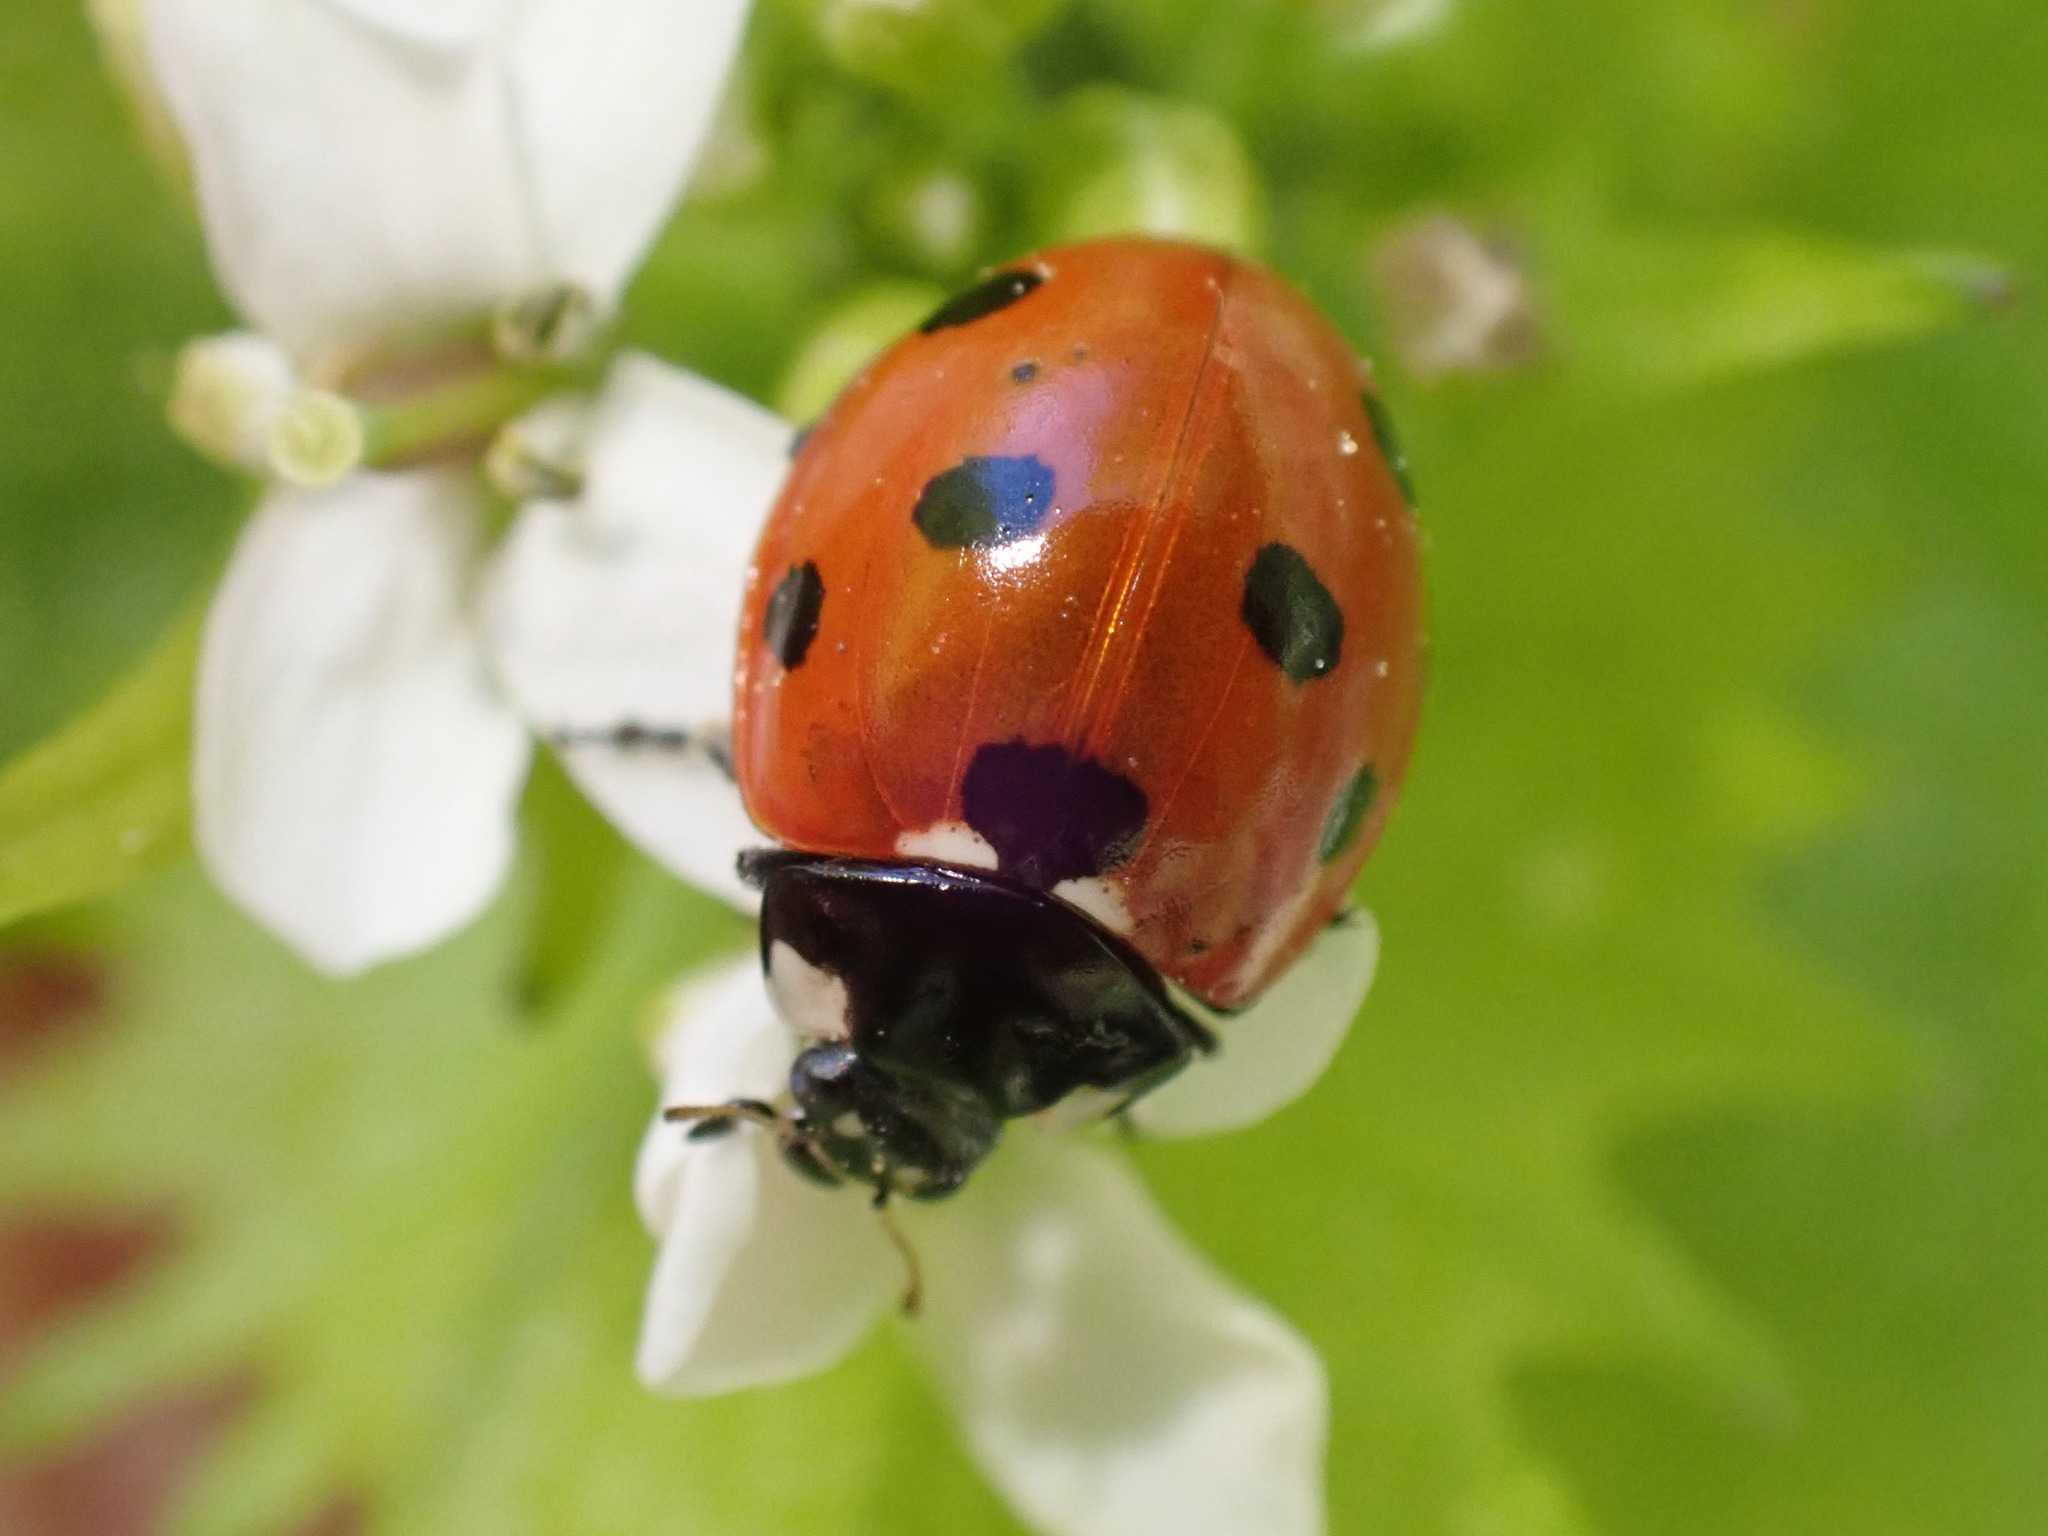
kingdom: Animalia
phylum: Arthropoda
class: Insecta
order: Coleoptera
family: Coccinellidae
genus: Coccinella
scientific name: Coccinella septempunctata
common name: Sevenspotted lady beetle
